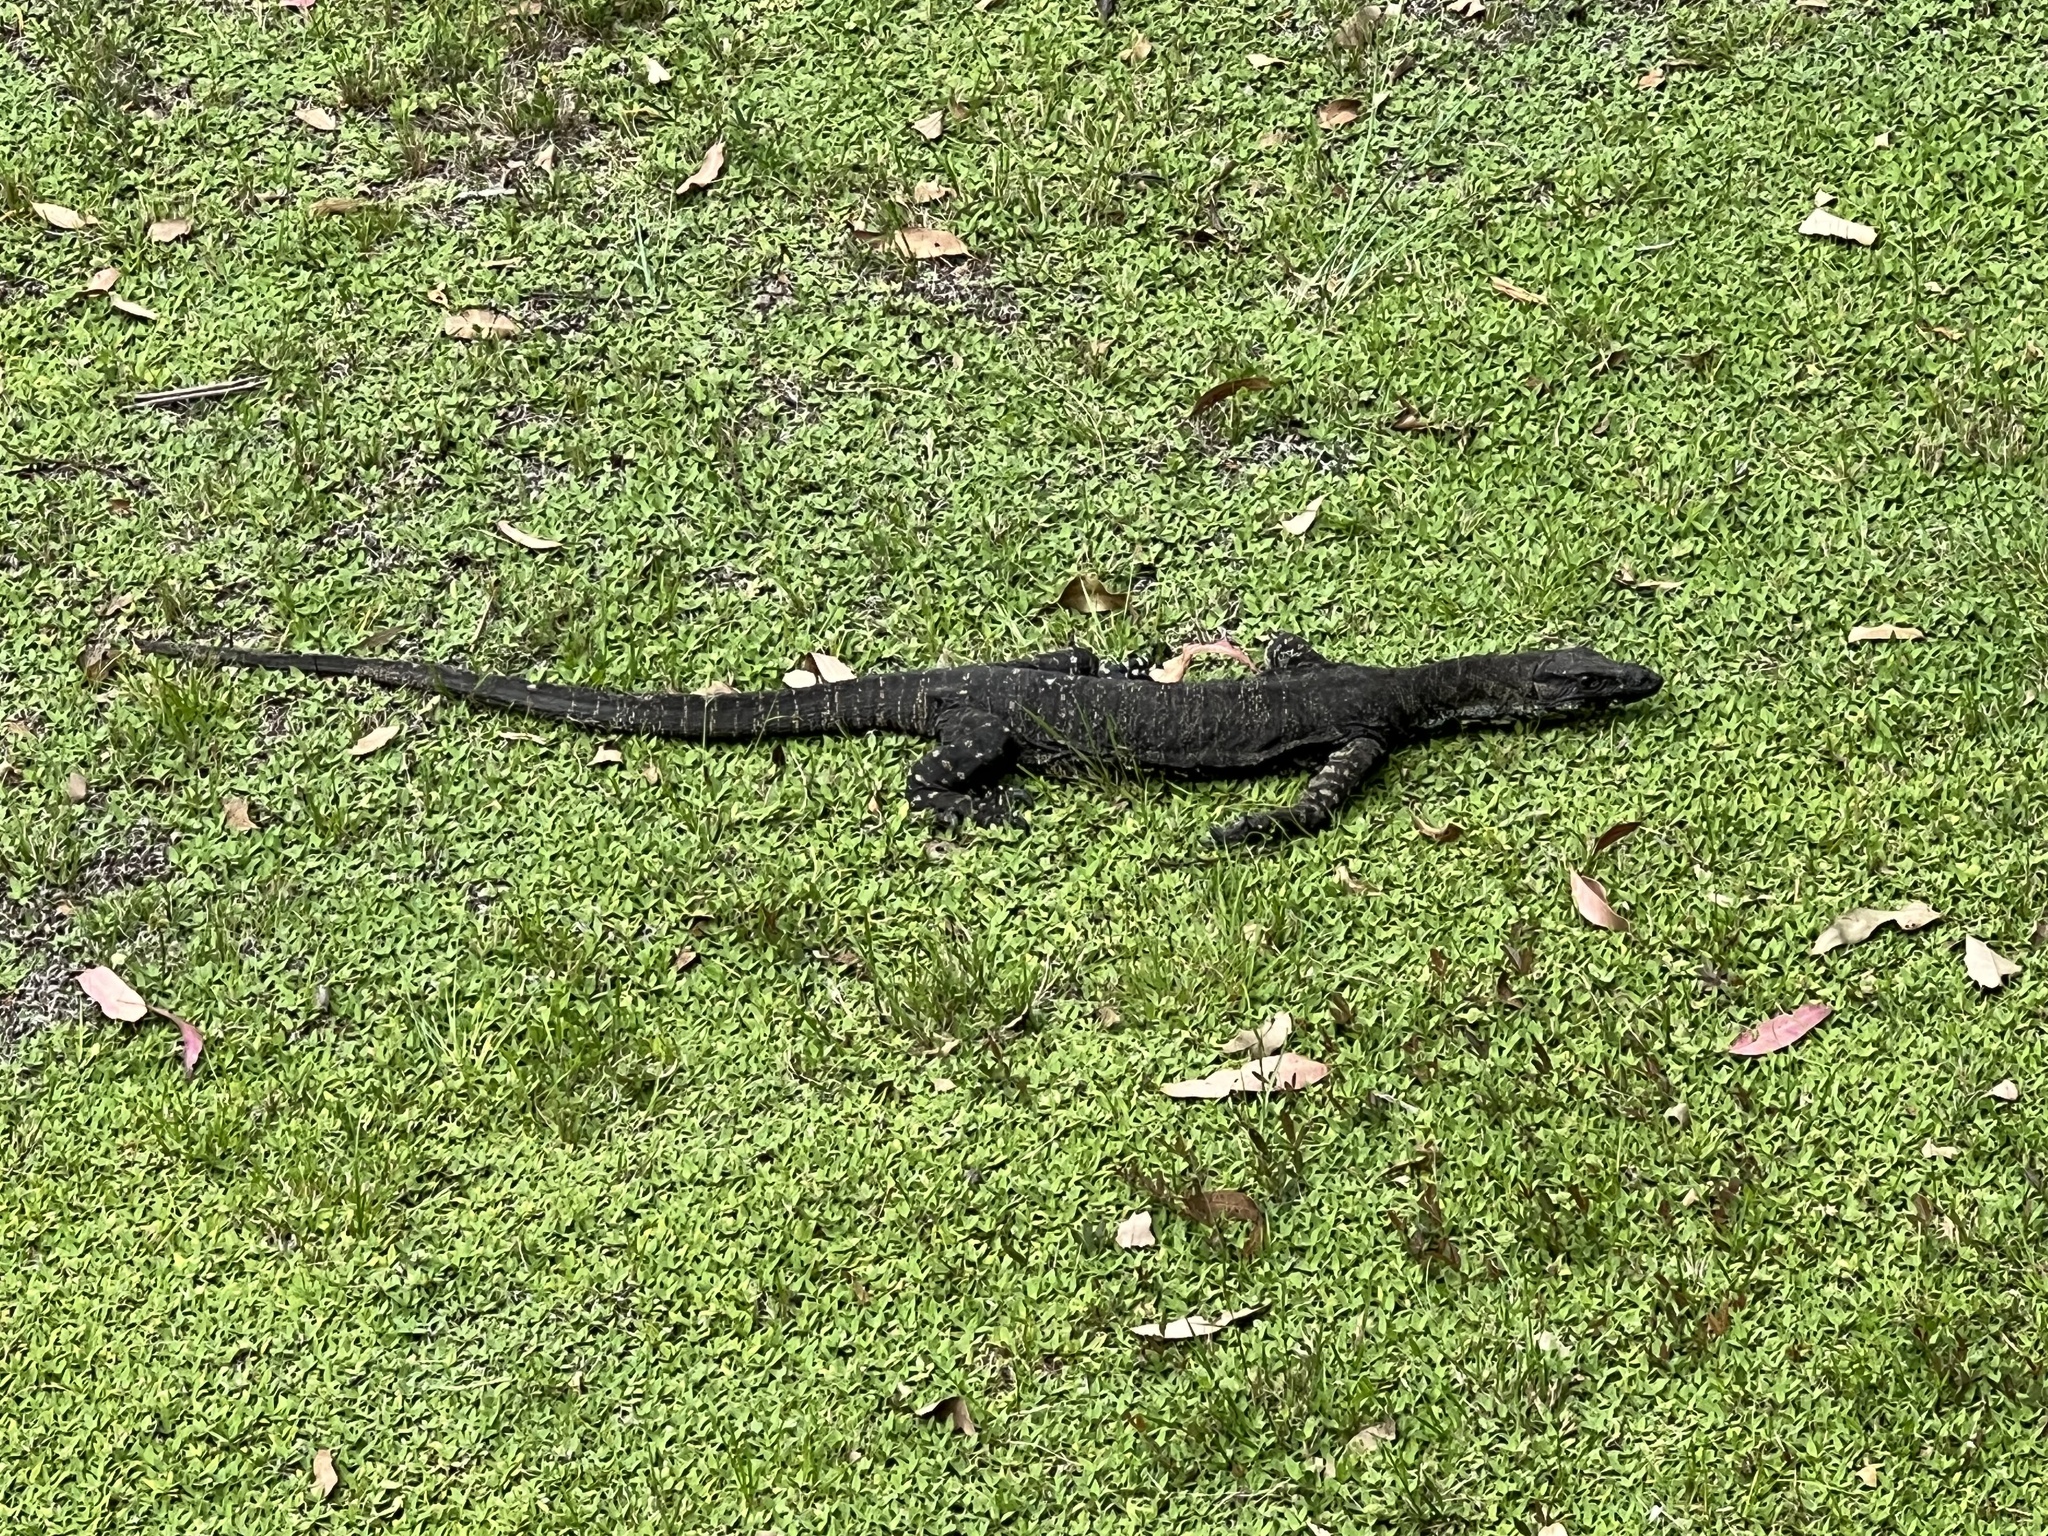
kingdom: Animalia
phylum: Chordata
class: Squamata
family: Varanidae
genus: Varanus
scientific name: Varanus varius
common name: Lace monitor
